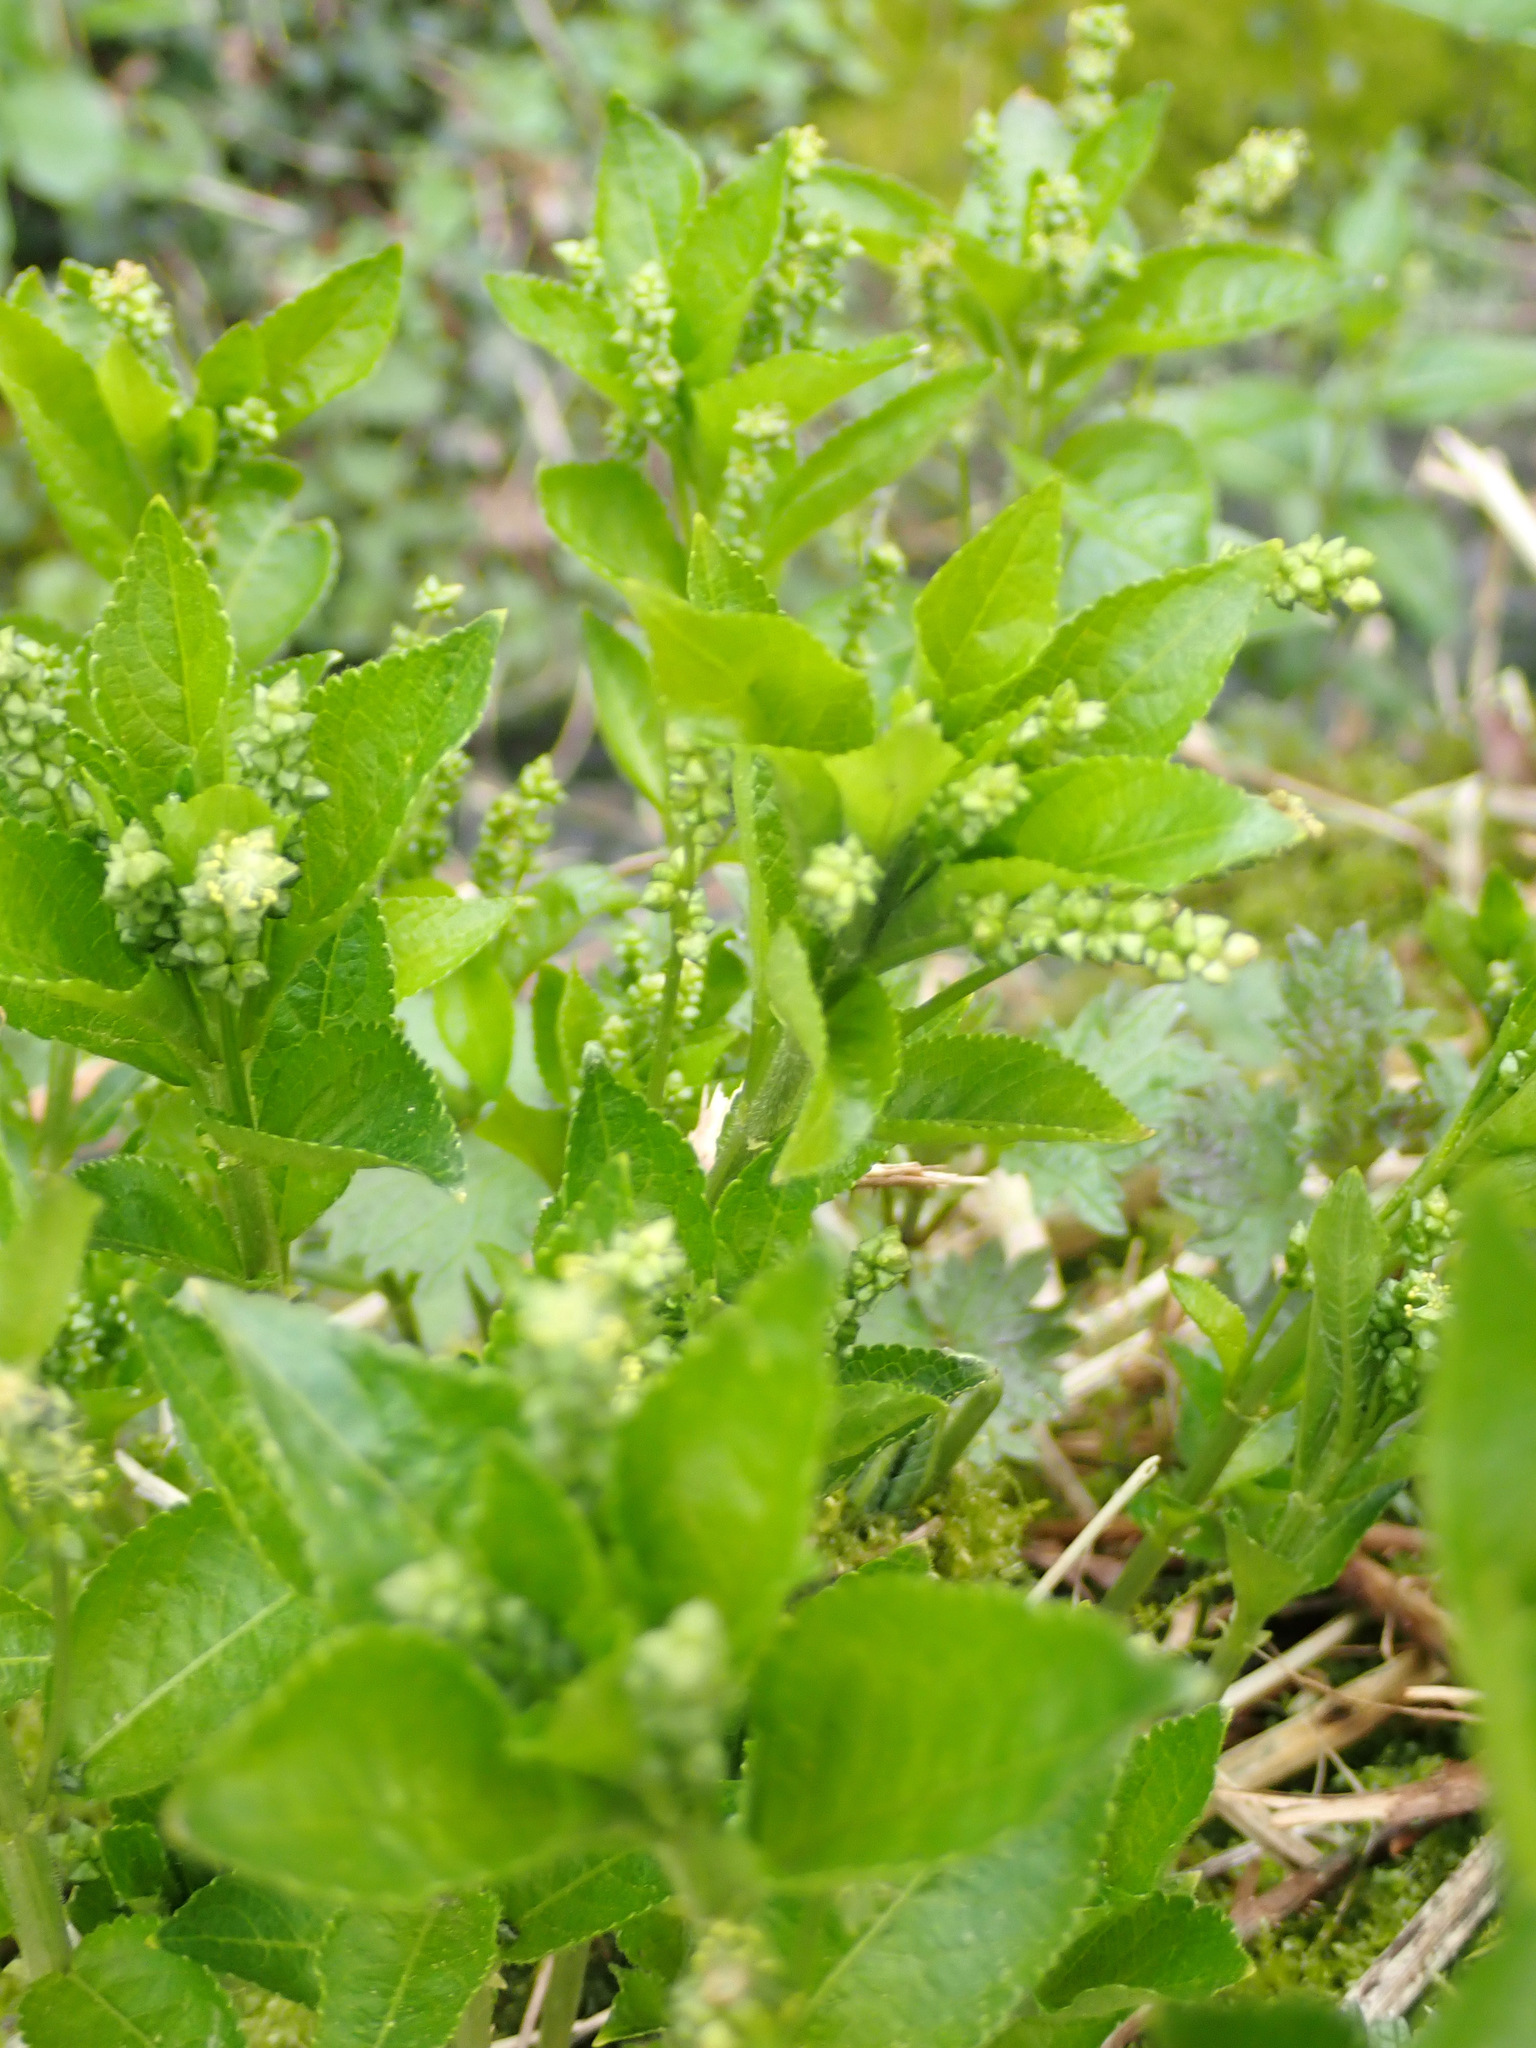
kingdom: Plantae
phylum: Tracheophyta
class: Magnoliopsida
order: Malpighiales
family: Euphorbiaceae
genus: Mercurialis
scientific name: Mercurialis perennis
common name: Dog mercury
